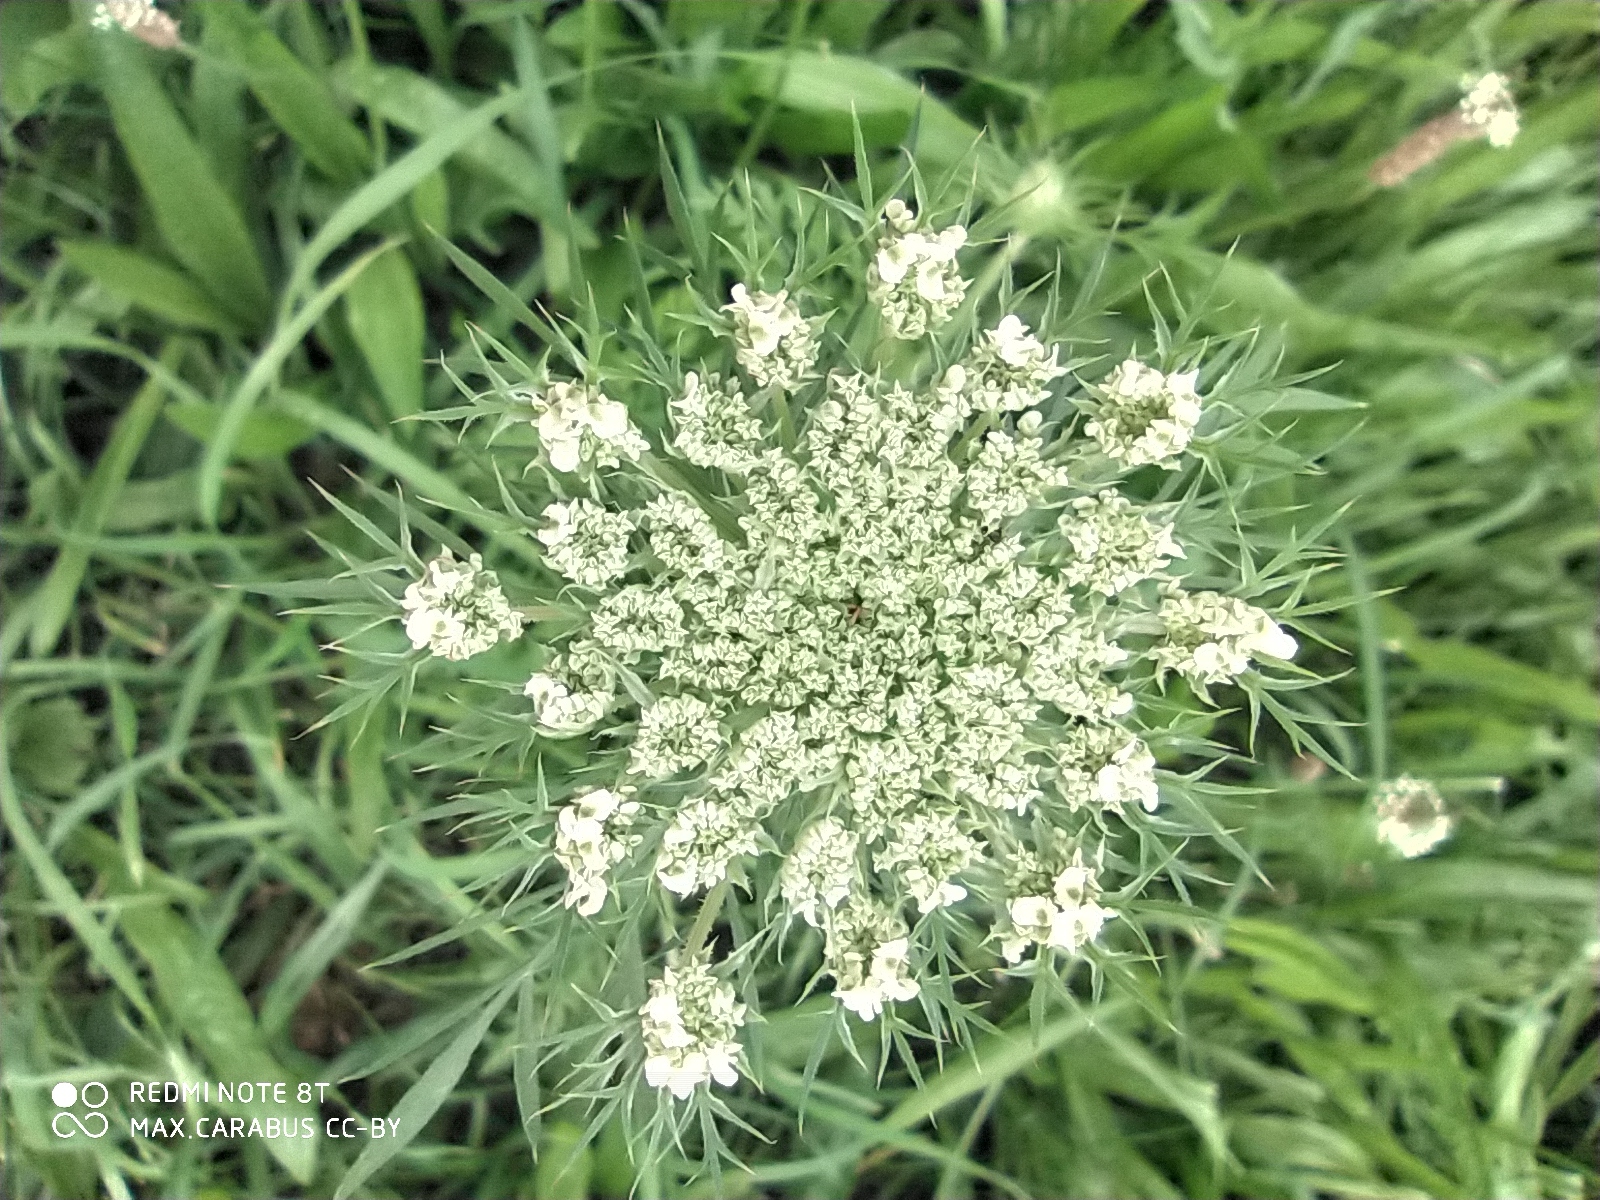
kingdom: Plantae
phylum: Tracheophyta
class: Magnoliopsida
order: Apiales
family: Apiaceae
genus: Daucus
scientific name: Daucus carota
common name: Wild carrot
